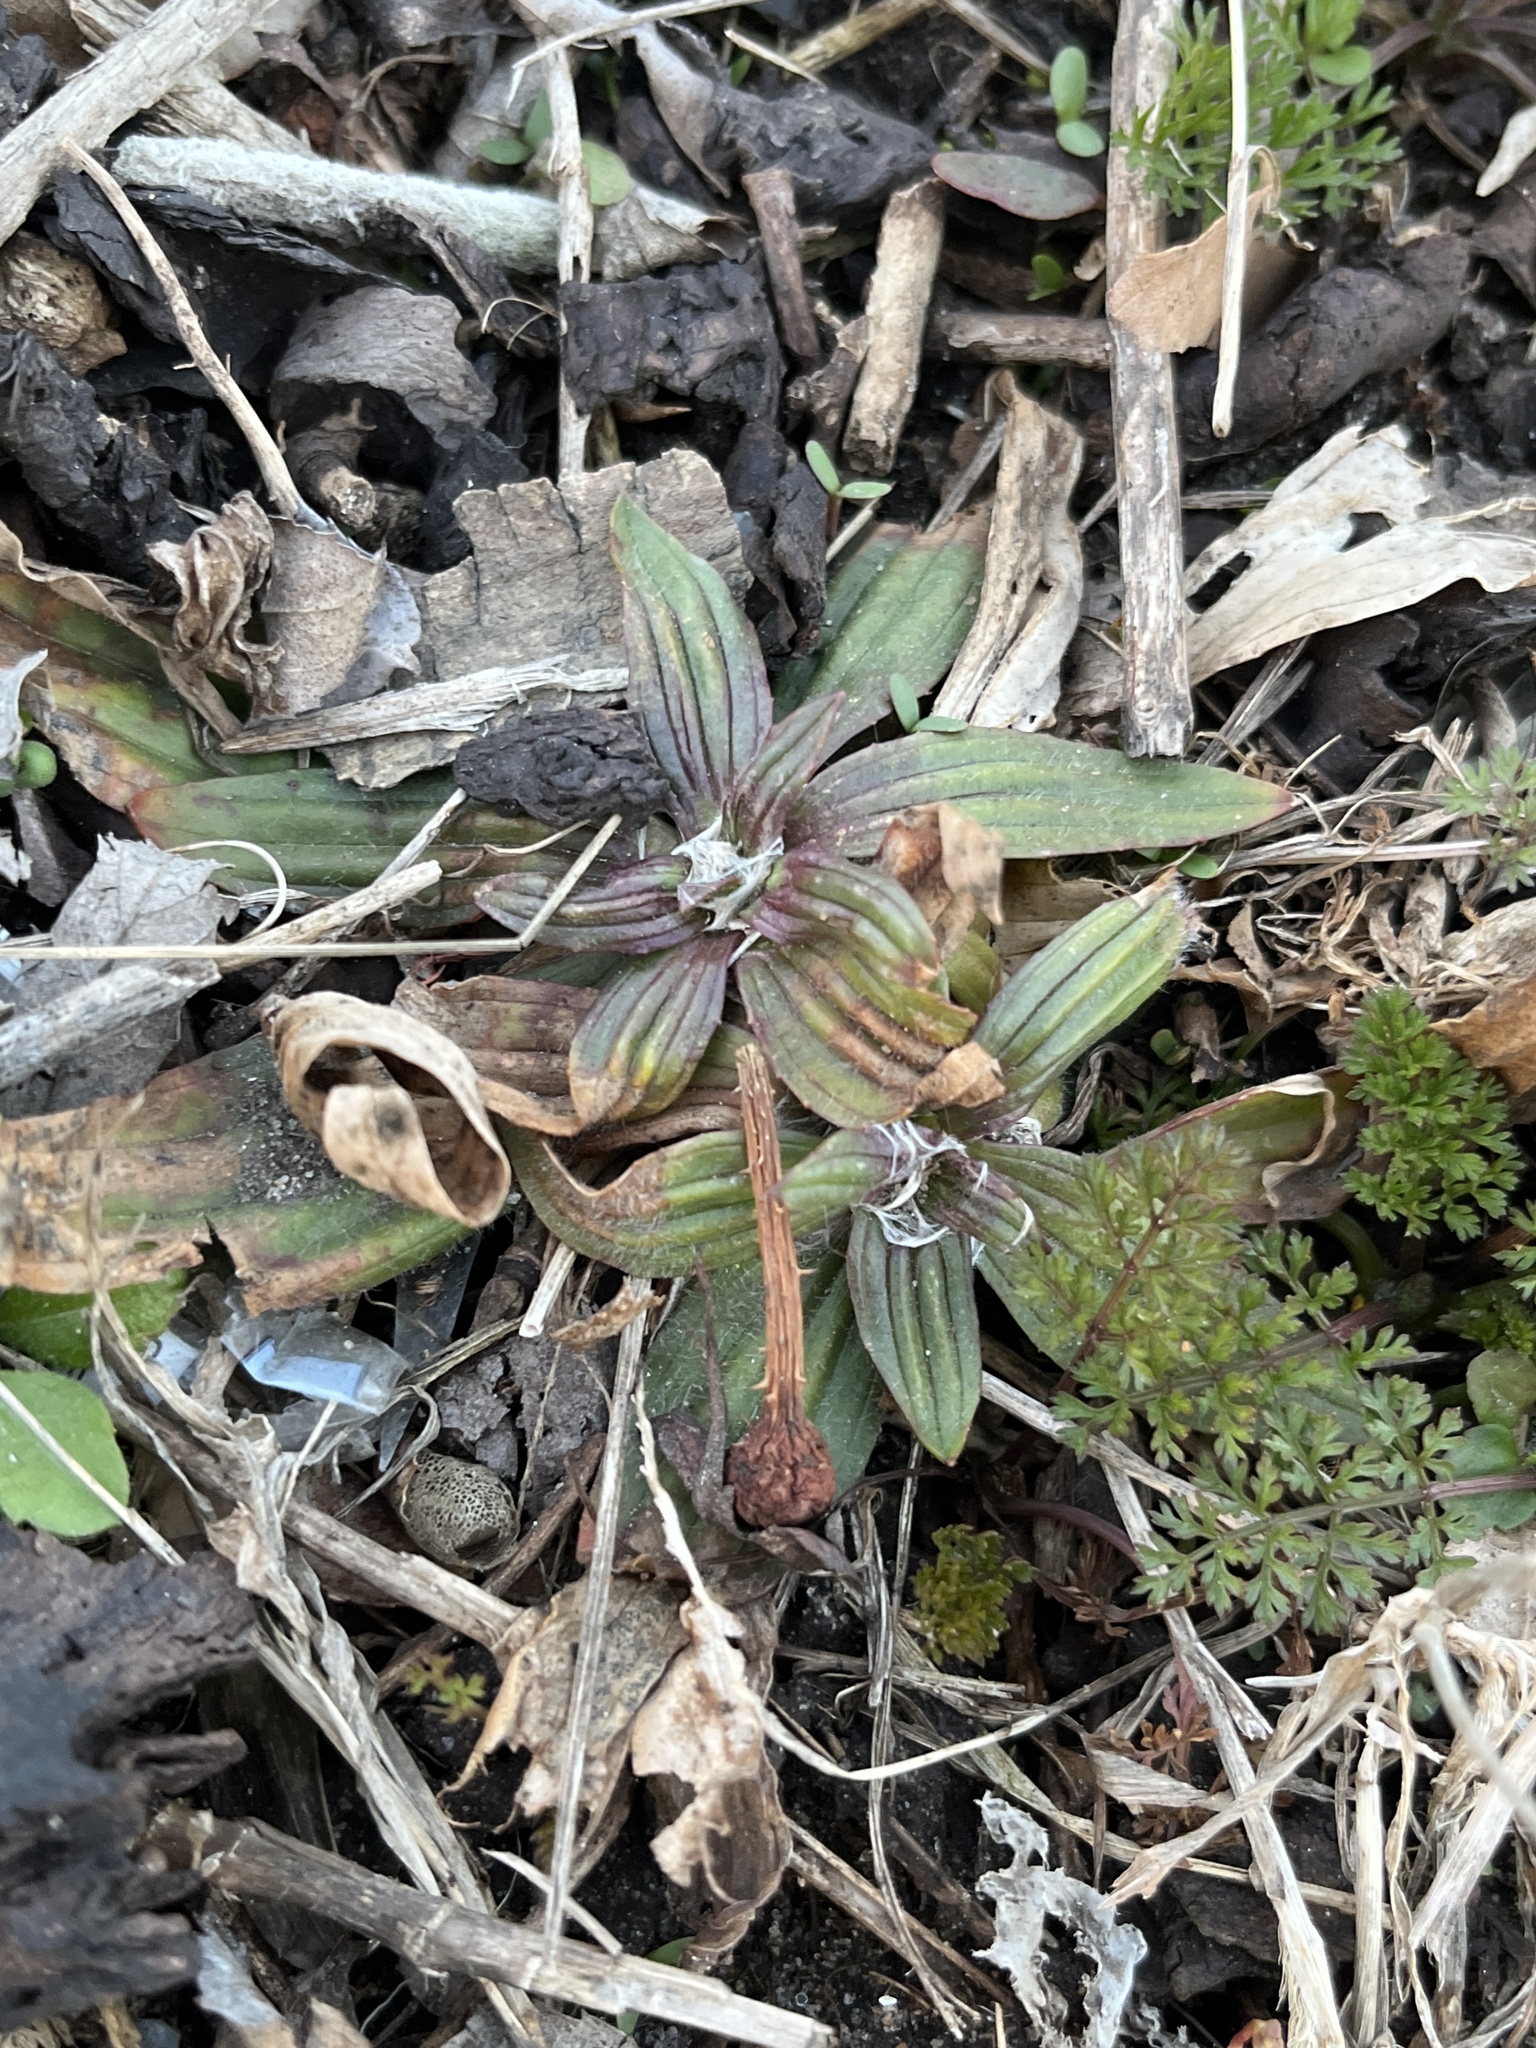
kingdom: Plantae
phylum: Tracheophyta
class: Magnoliopsida
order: Lamiales
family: Plantaginaceae
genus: Plantago
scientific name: Plantago lanceolata
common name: Ribwort plantain
